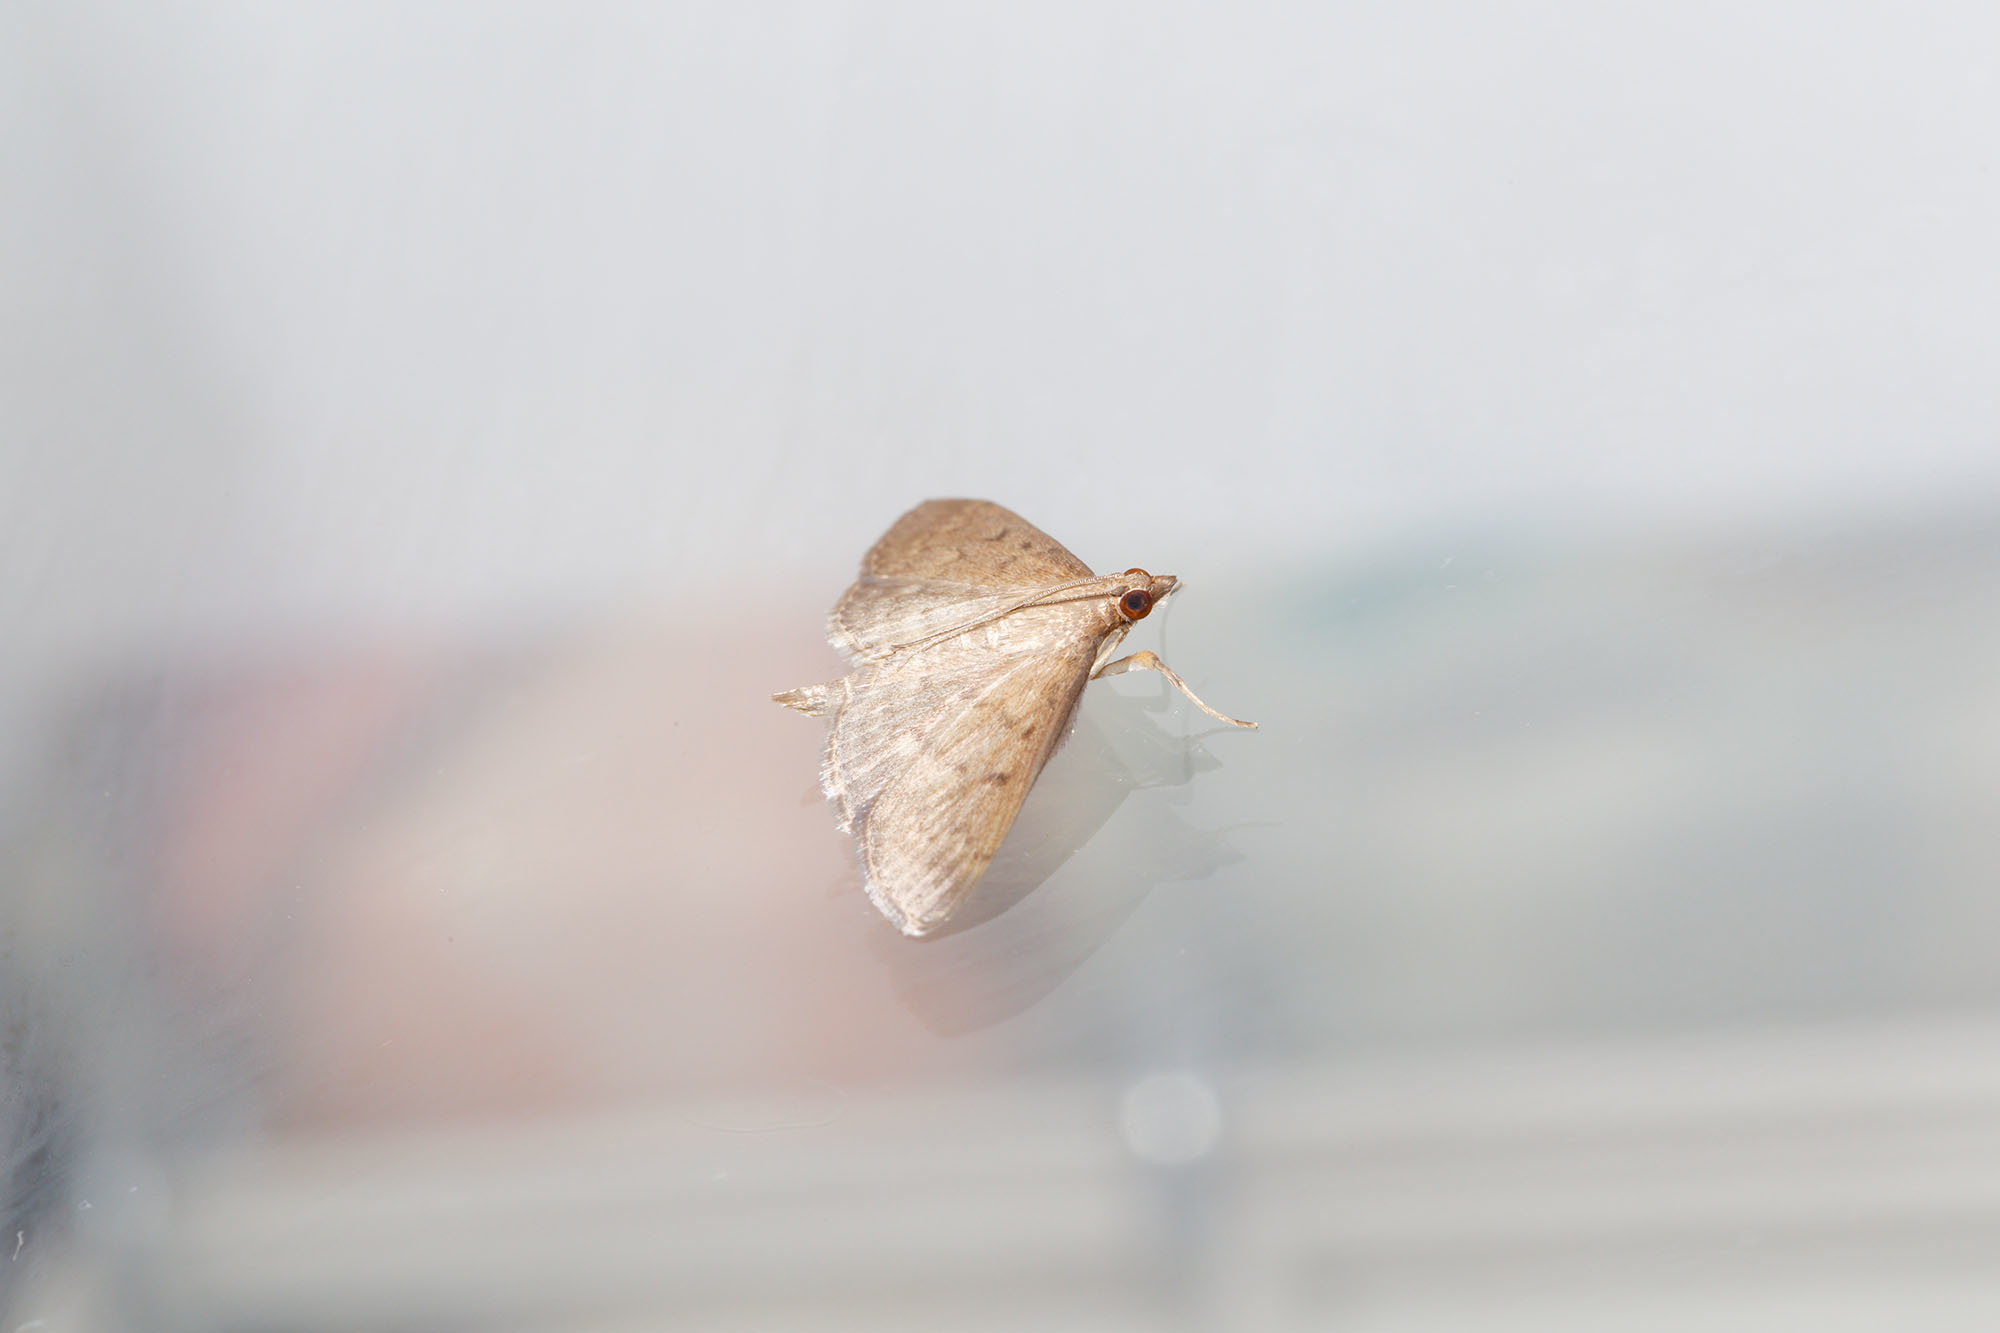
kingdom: Animalia
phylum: Arthropoda
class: Insecta
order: Lepidoptera
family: Crambidae
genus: Herpetogramma
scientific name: Herpetogramma licarsisalis
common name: Grass webworm
